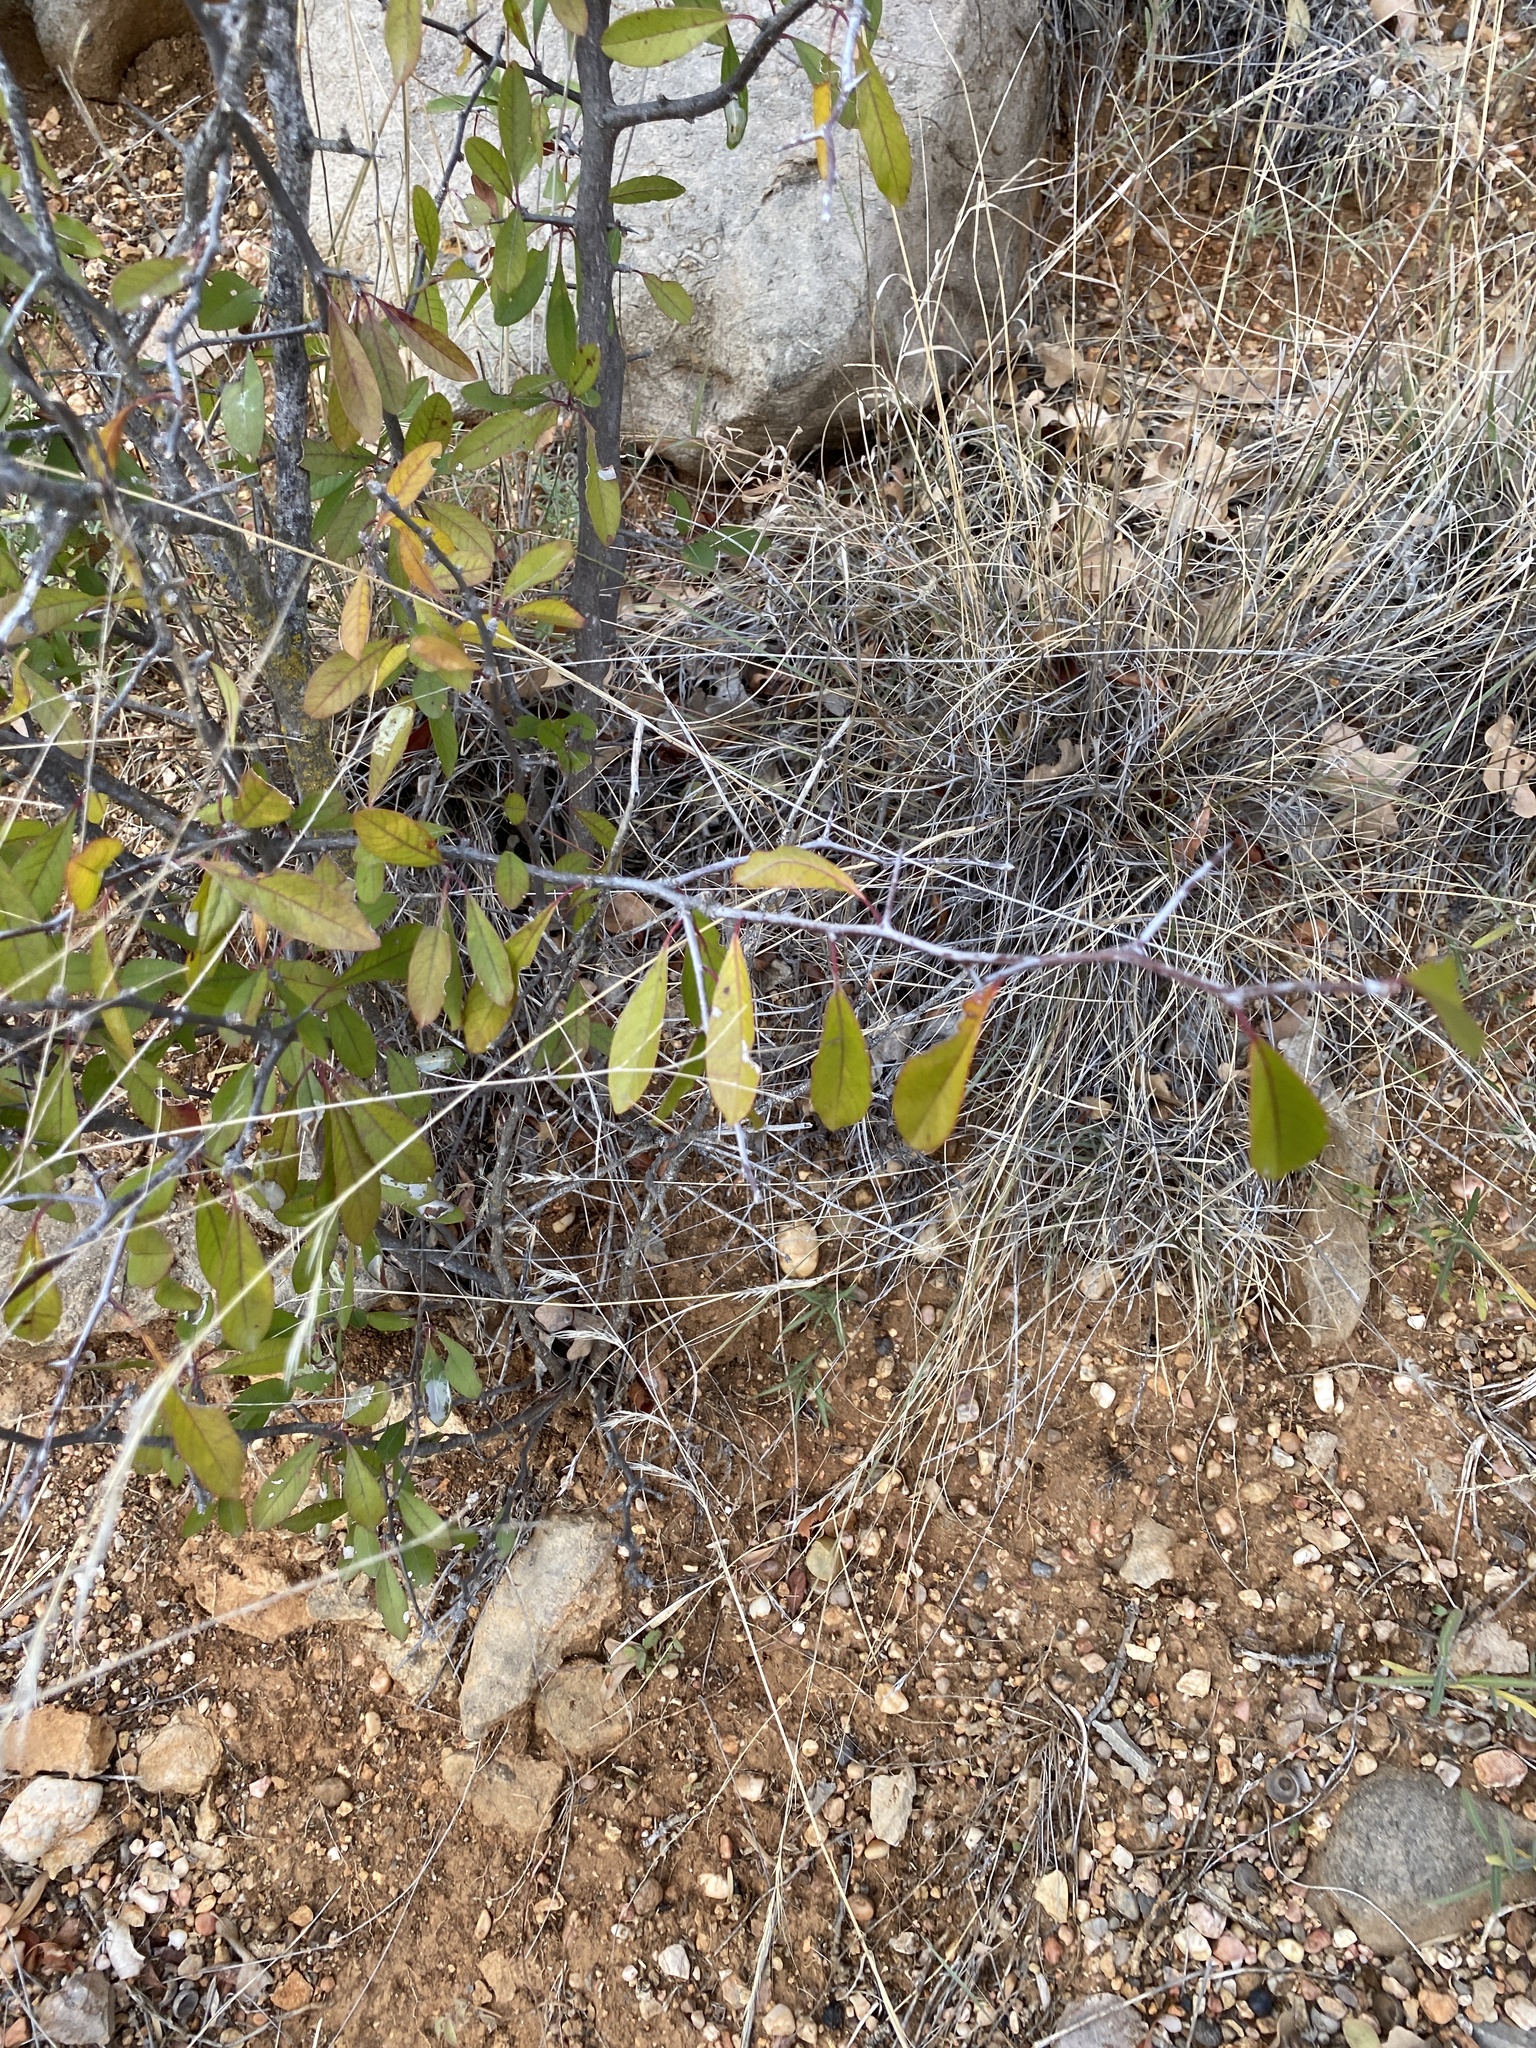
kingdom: Plantae
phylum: Tracheophyta
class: Magnoliopsida
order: Ericales
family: Sapotaceae
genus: Sideroxylon
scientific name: Sideroxylon lanuginosum
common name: Chittamwood
